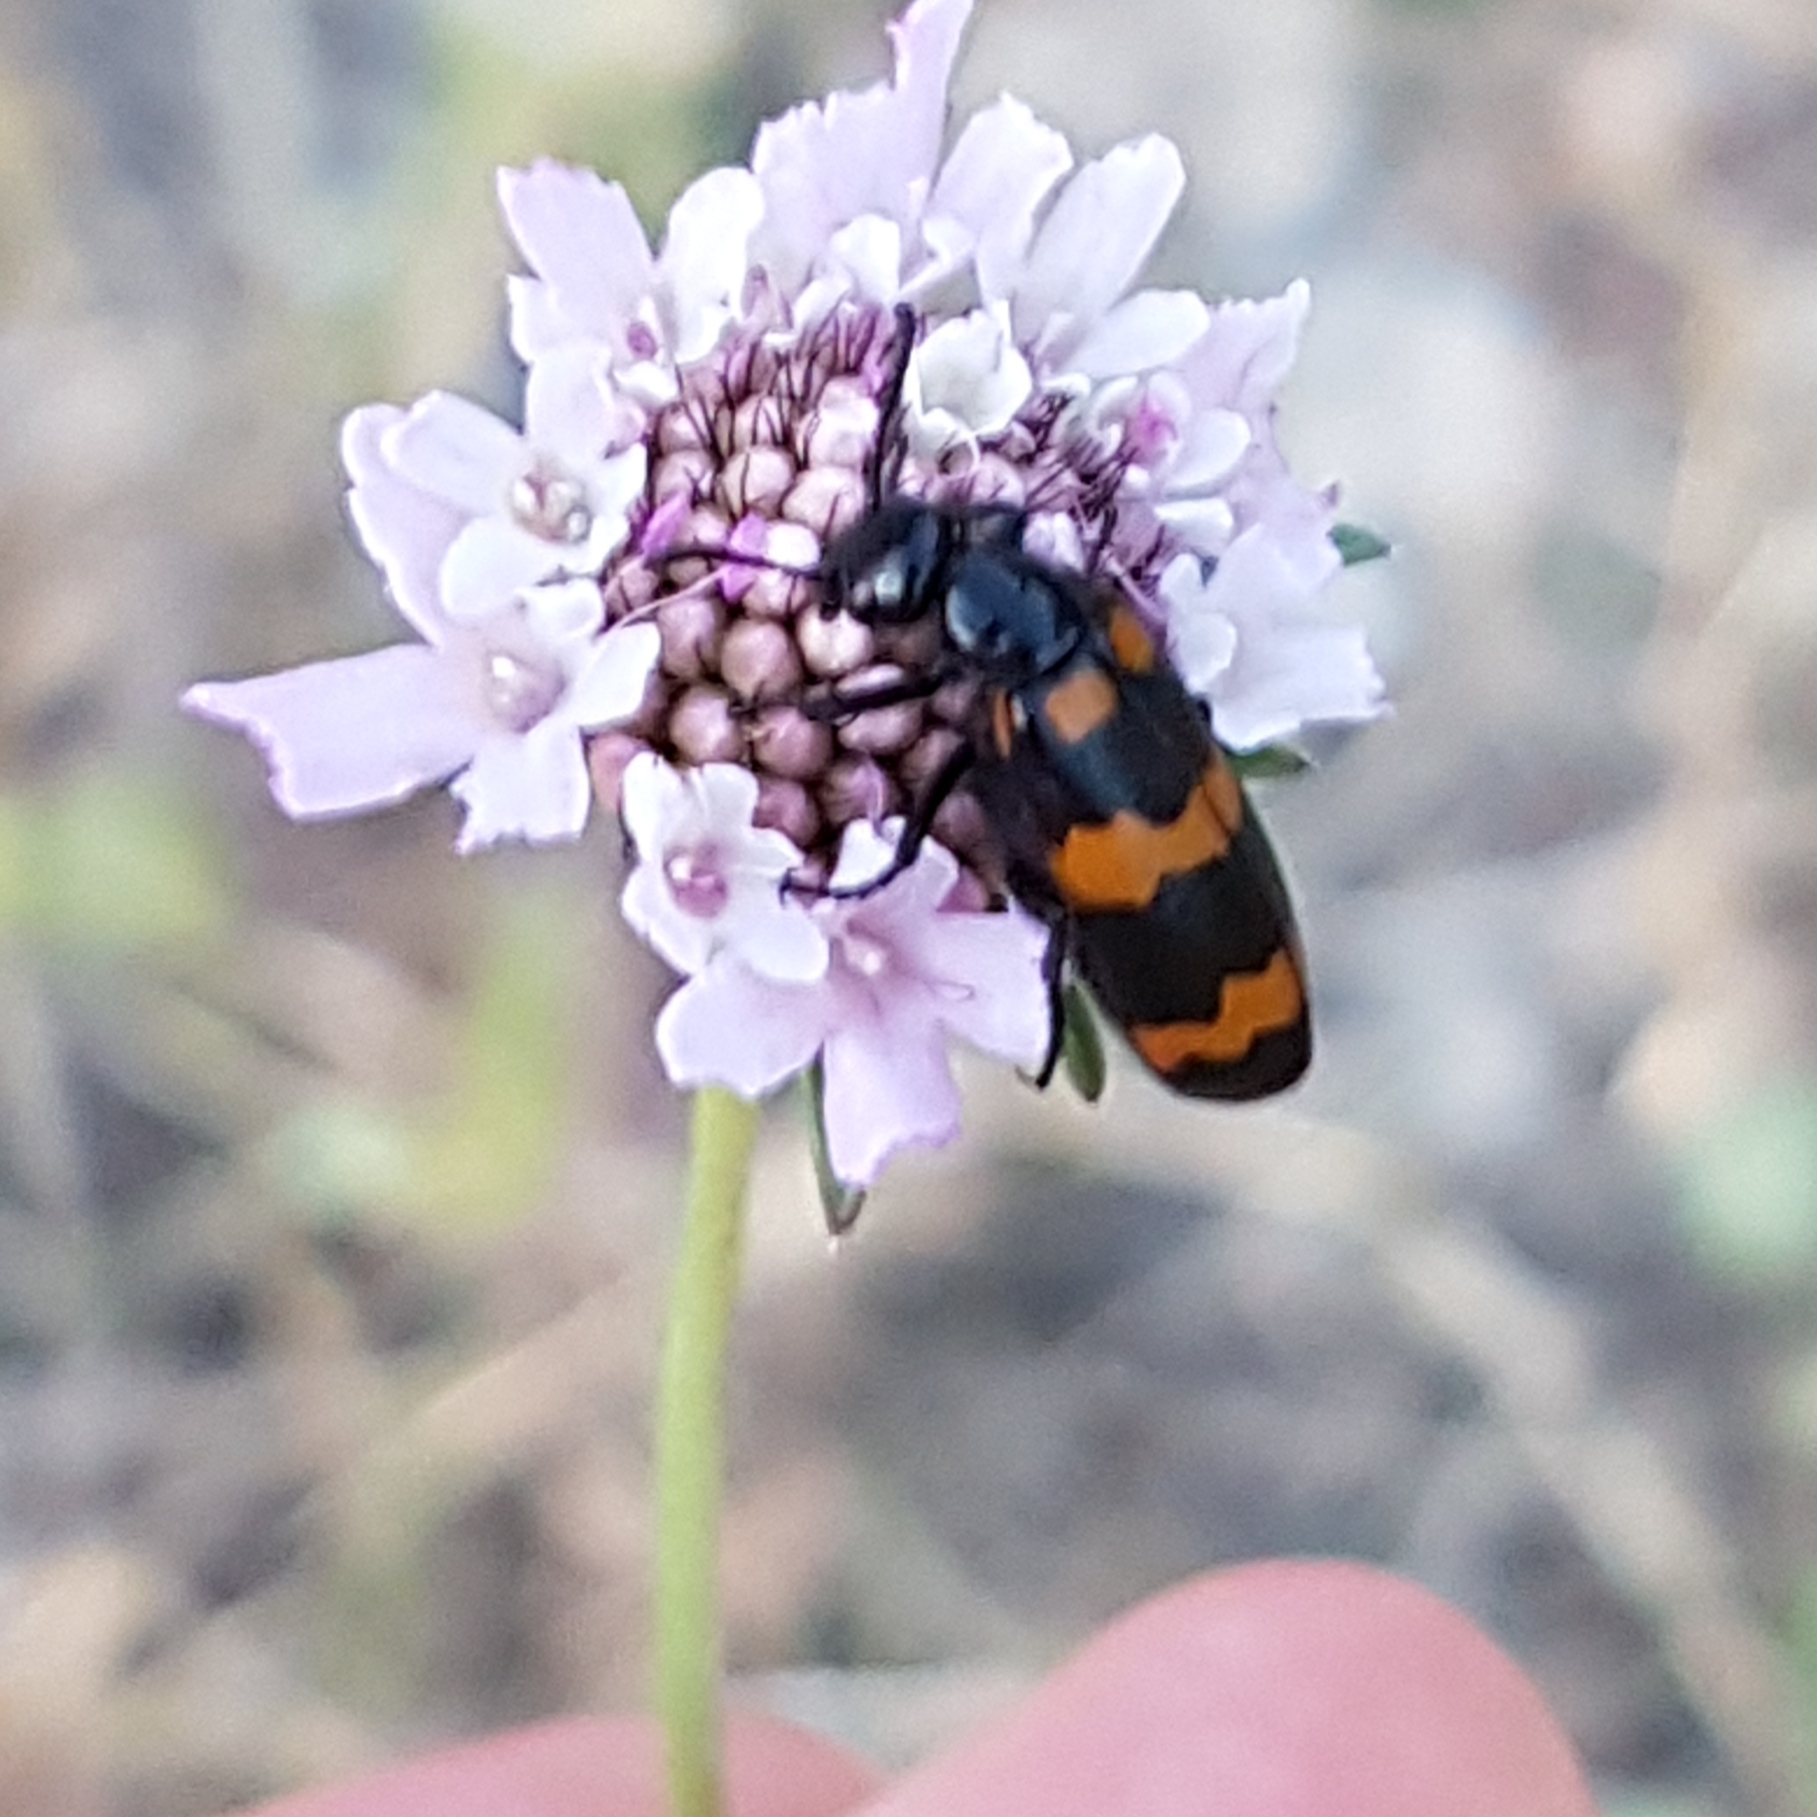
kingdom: Animalia
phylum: Arthropoda
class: Insecta
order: Coleoptera
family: Meloidae
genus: Mylabris
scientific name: Mylabris variabilis
